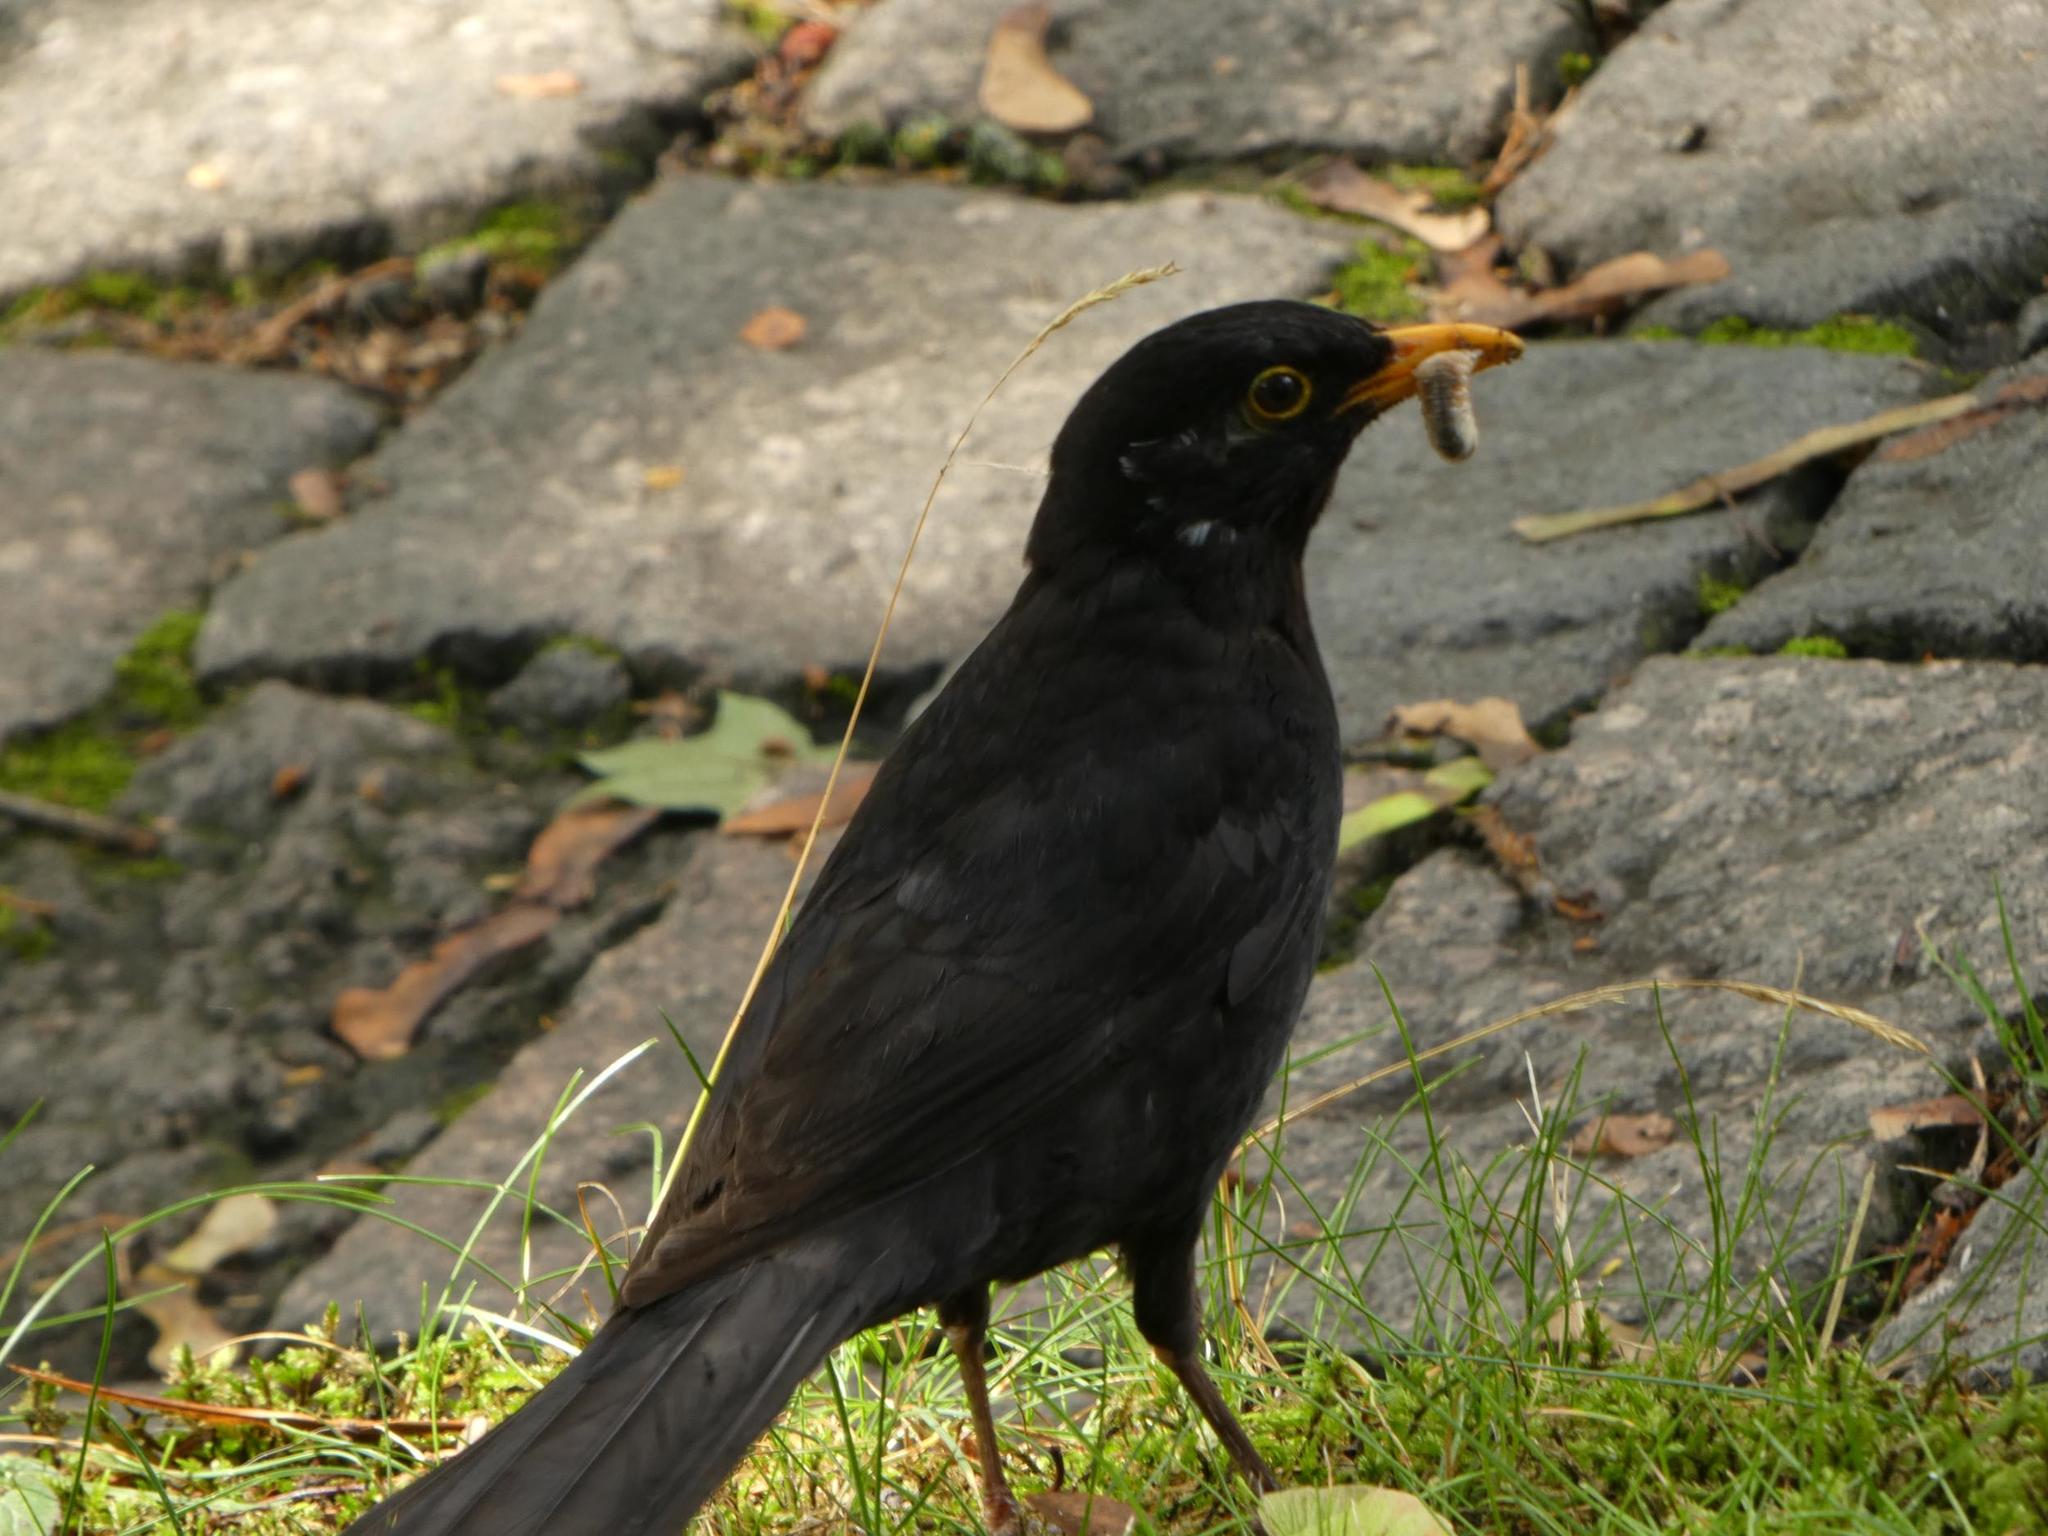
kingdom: Animalia
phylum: Chordata
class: Aves
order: Passeriformes
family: Turdidae
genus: Turdus
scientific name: Turdus merula
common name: Common blackbird
